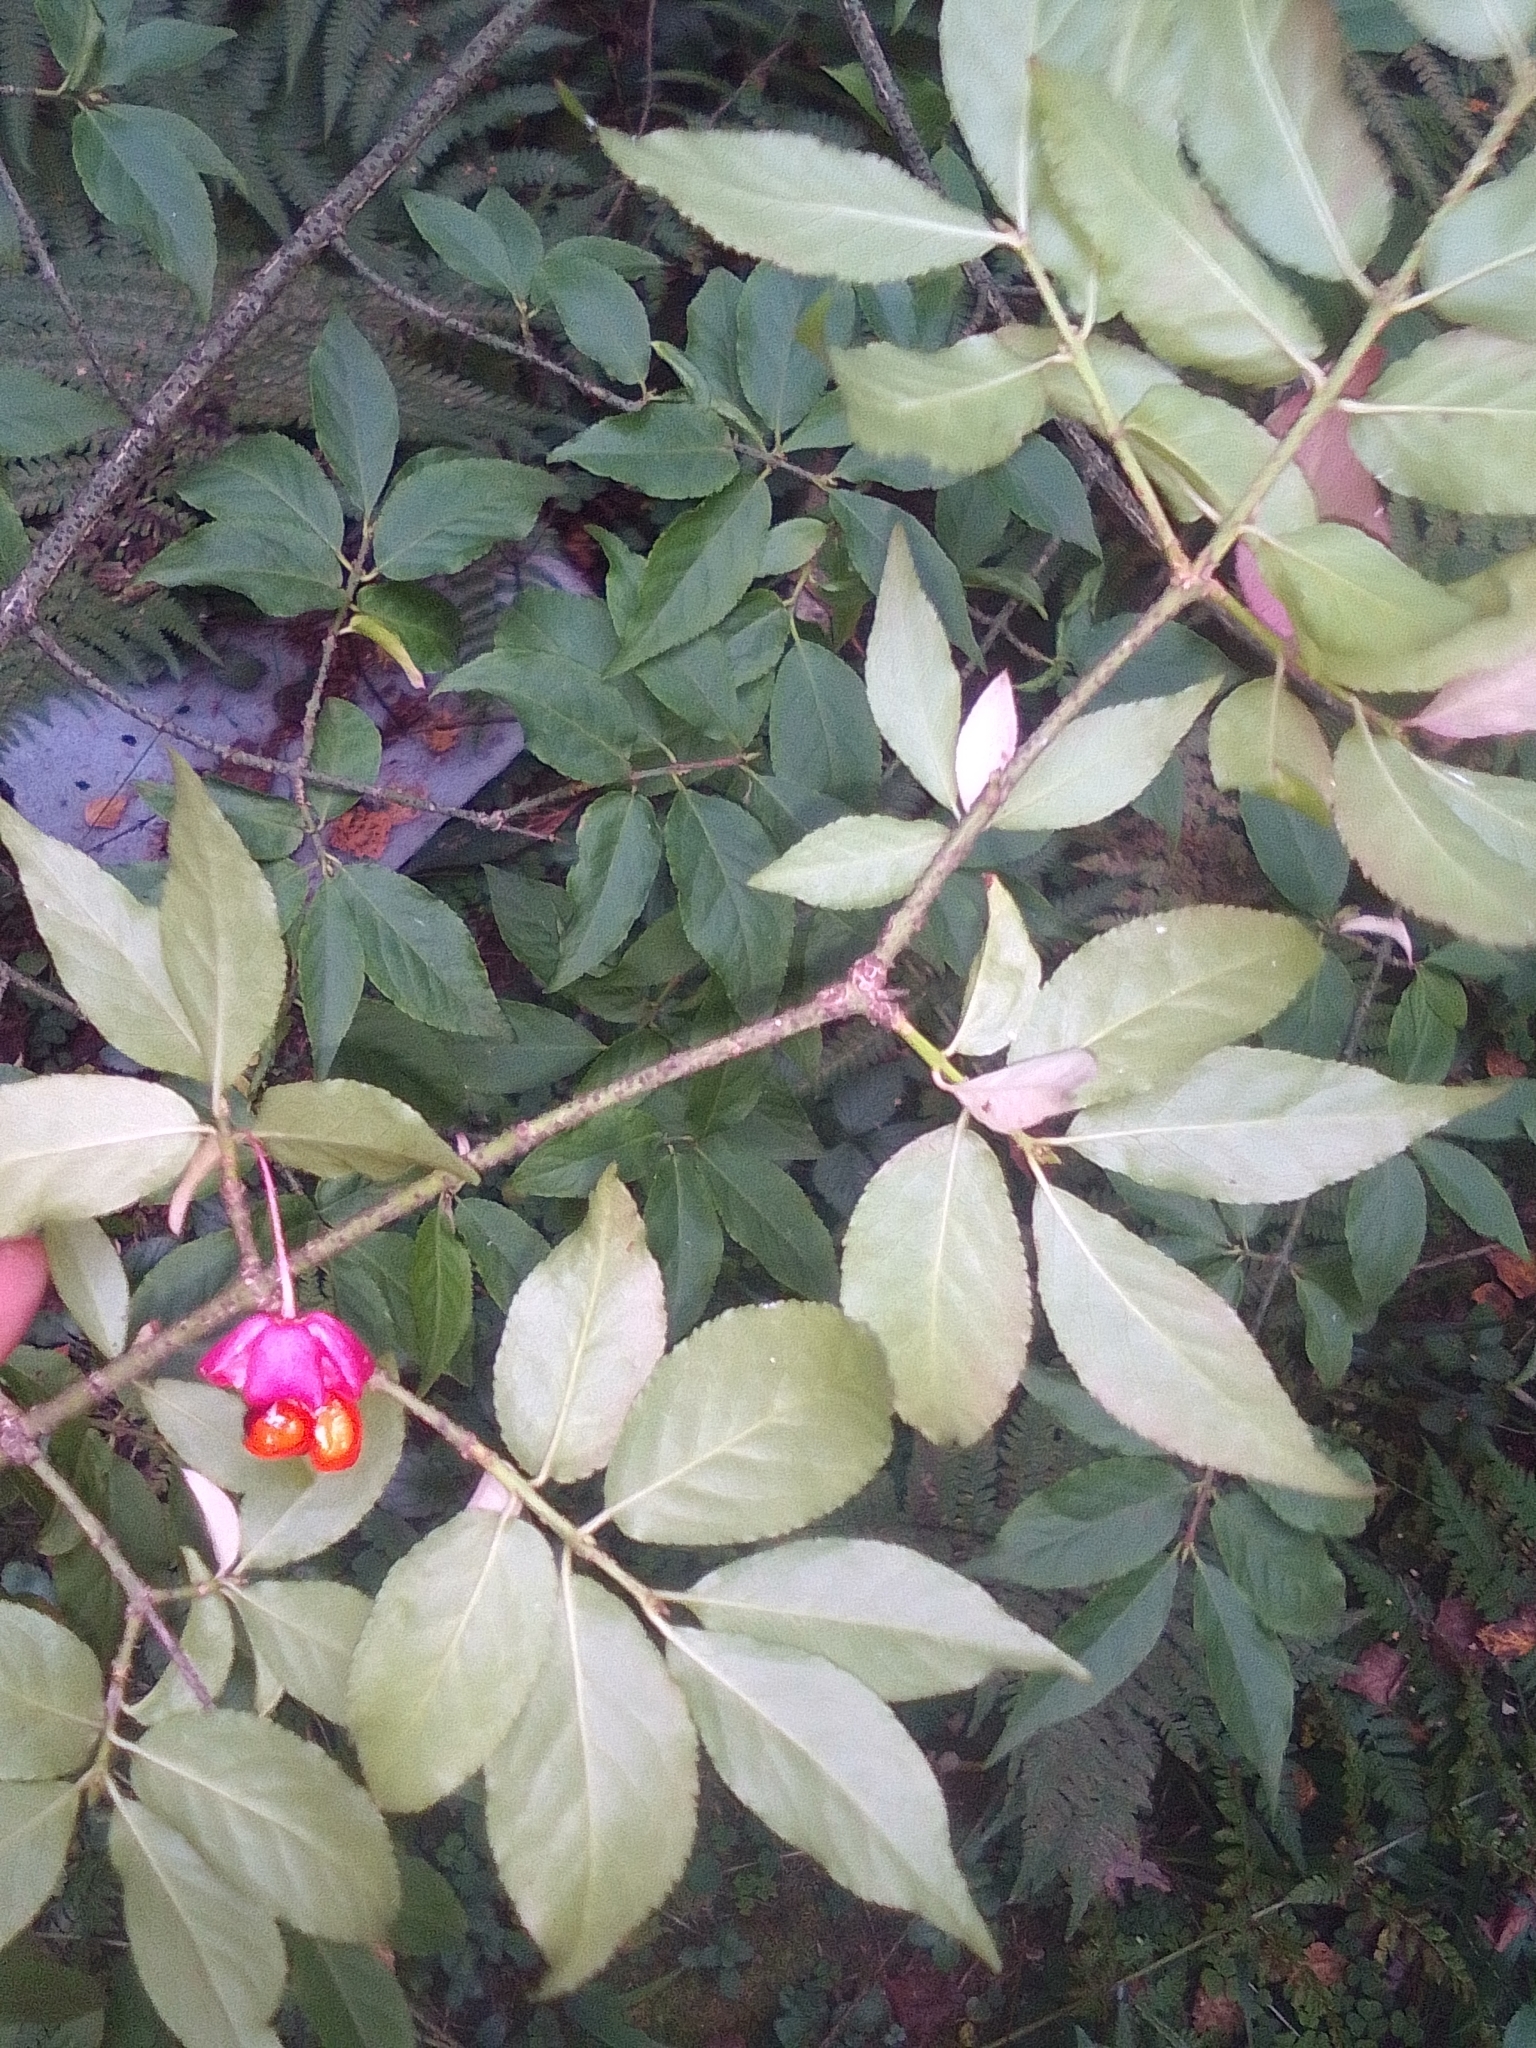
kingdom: Plantae
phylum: Tracheophyta
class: Magnoliopsida
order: Celastrales
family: Celastraceae
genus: Euonymus
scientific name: Euonymus verrucosus
